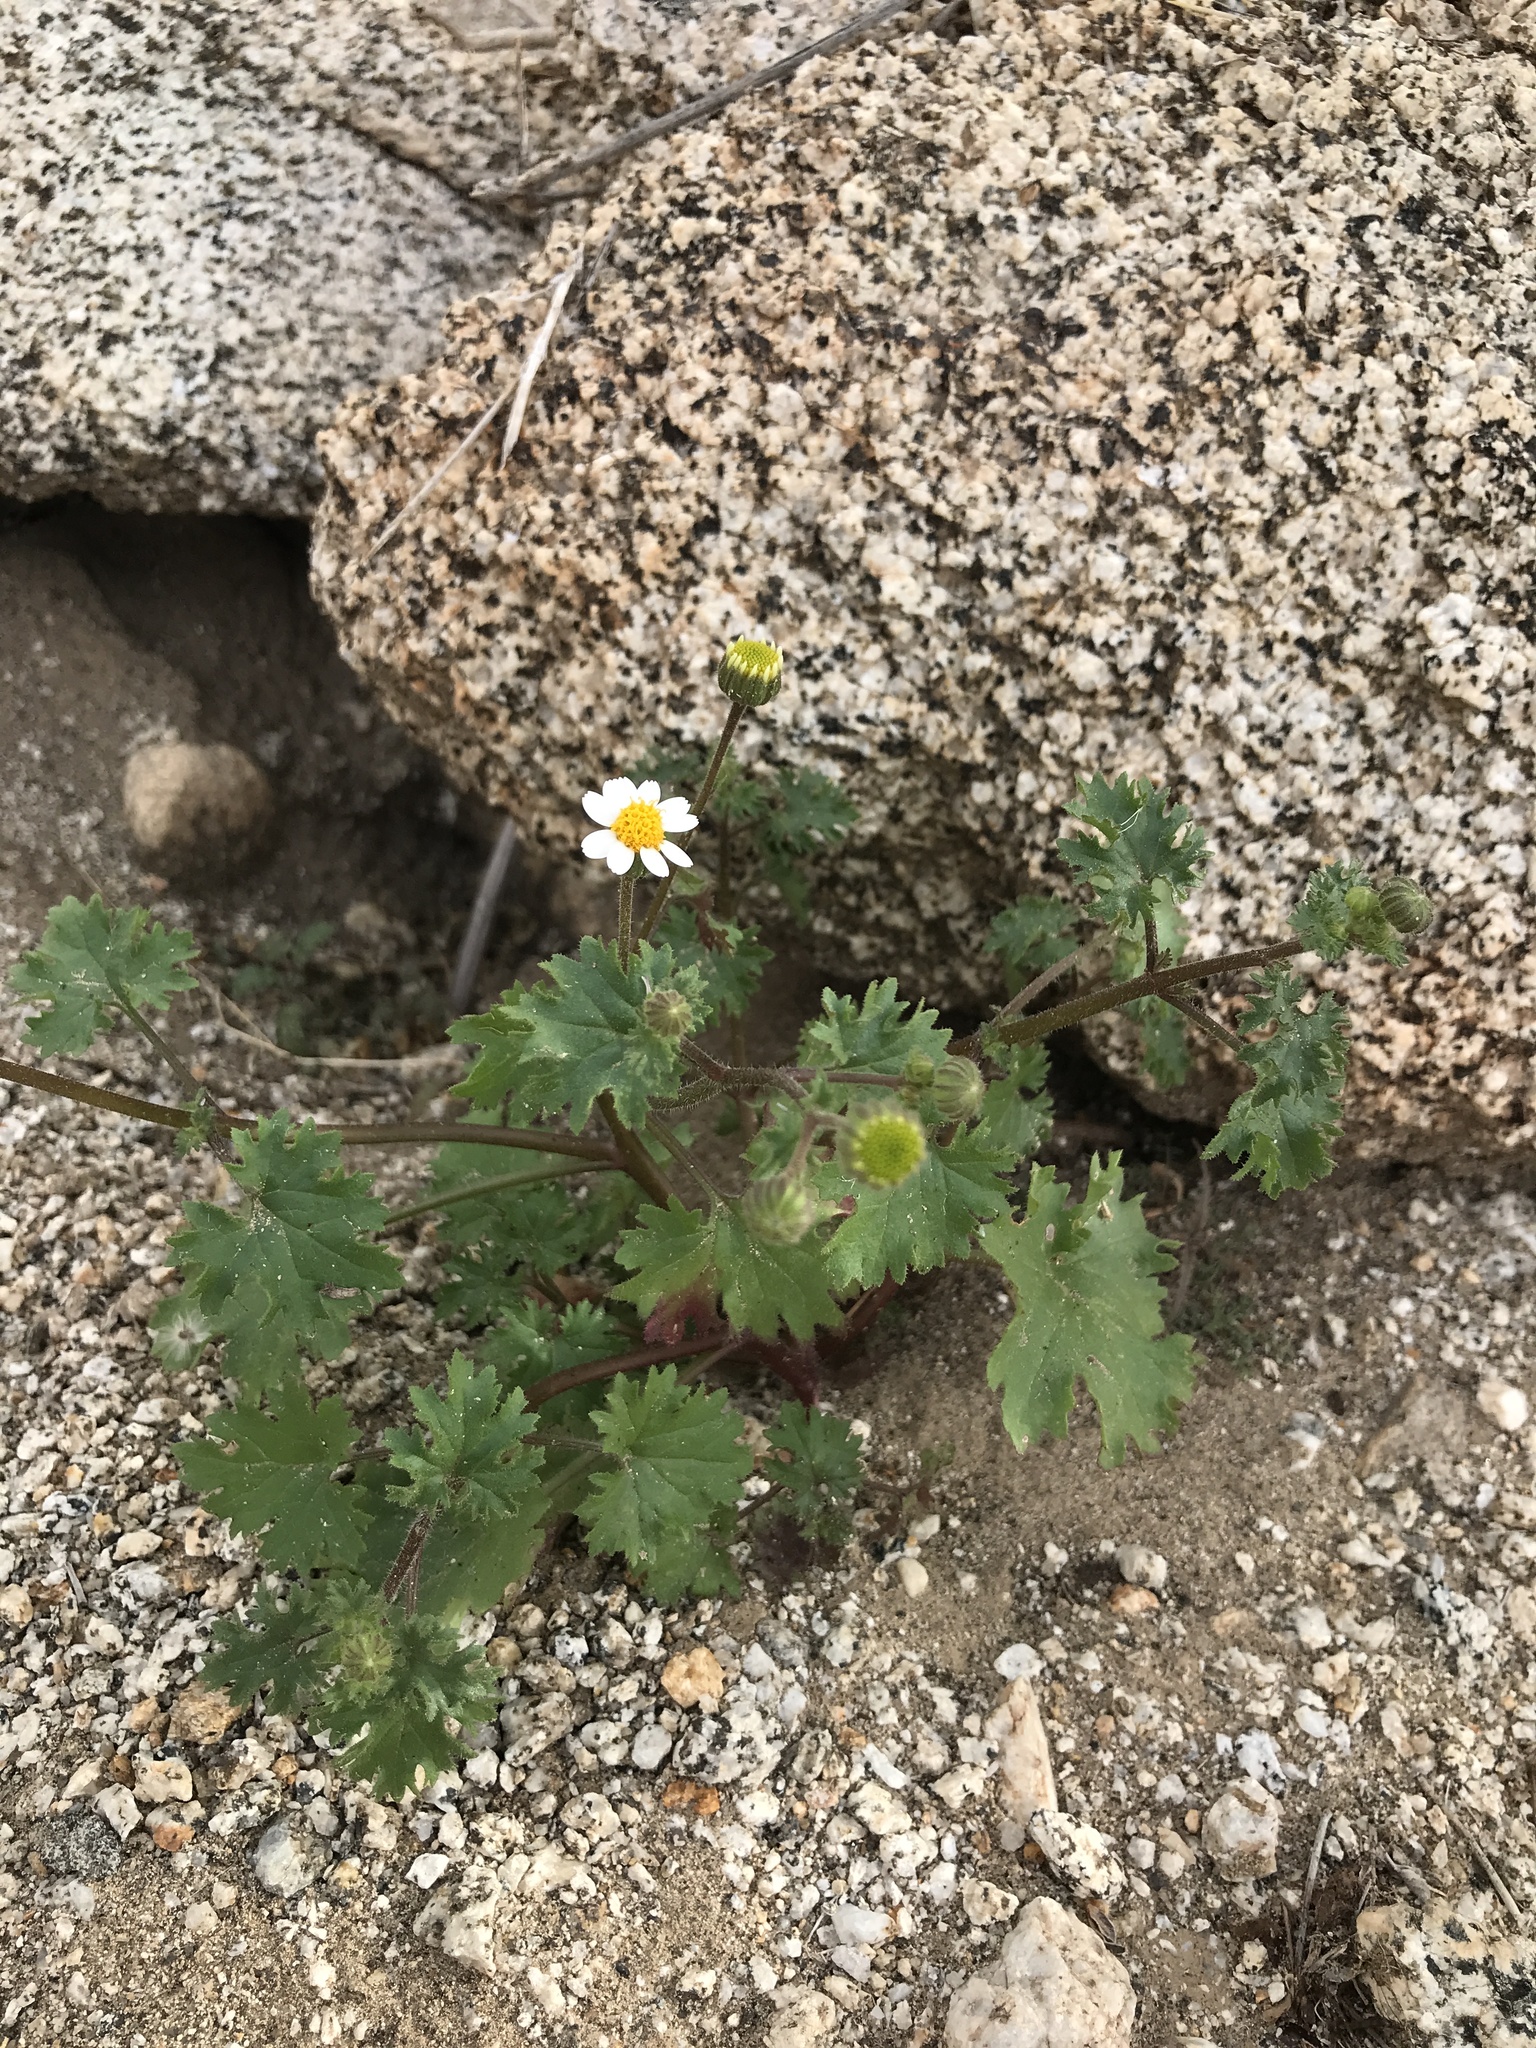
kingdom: Plantae
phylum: Tracheophyta
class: Magnoliopsida
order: Asterales
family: Asteraceae
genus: Laphamia
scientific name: Laphamia emoryi
